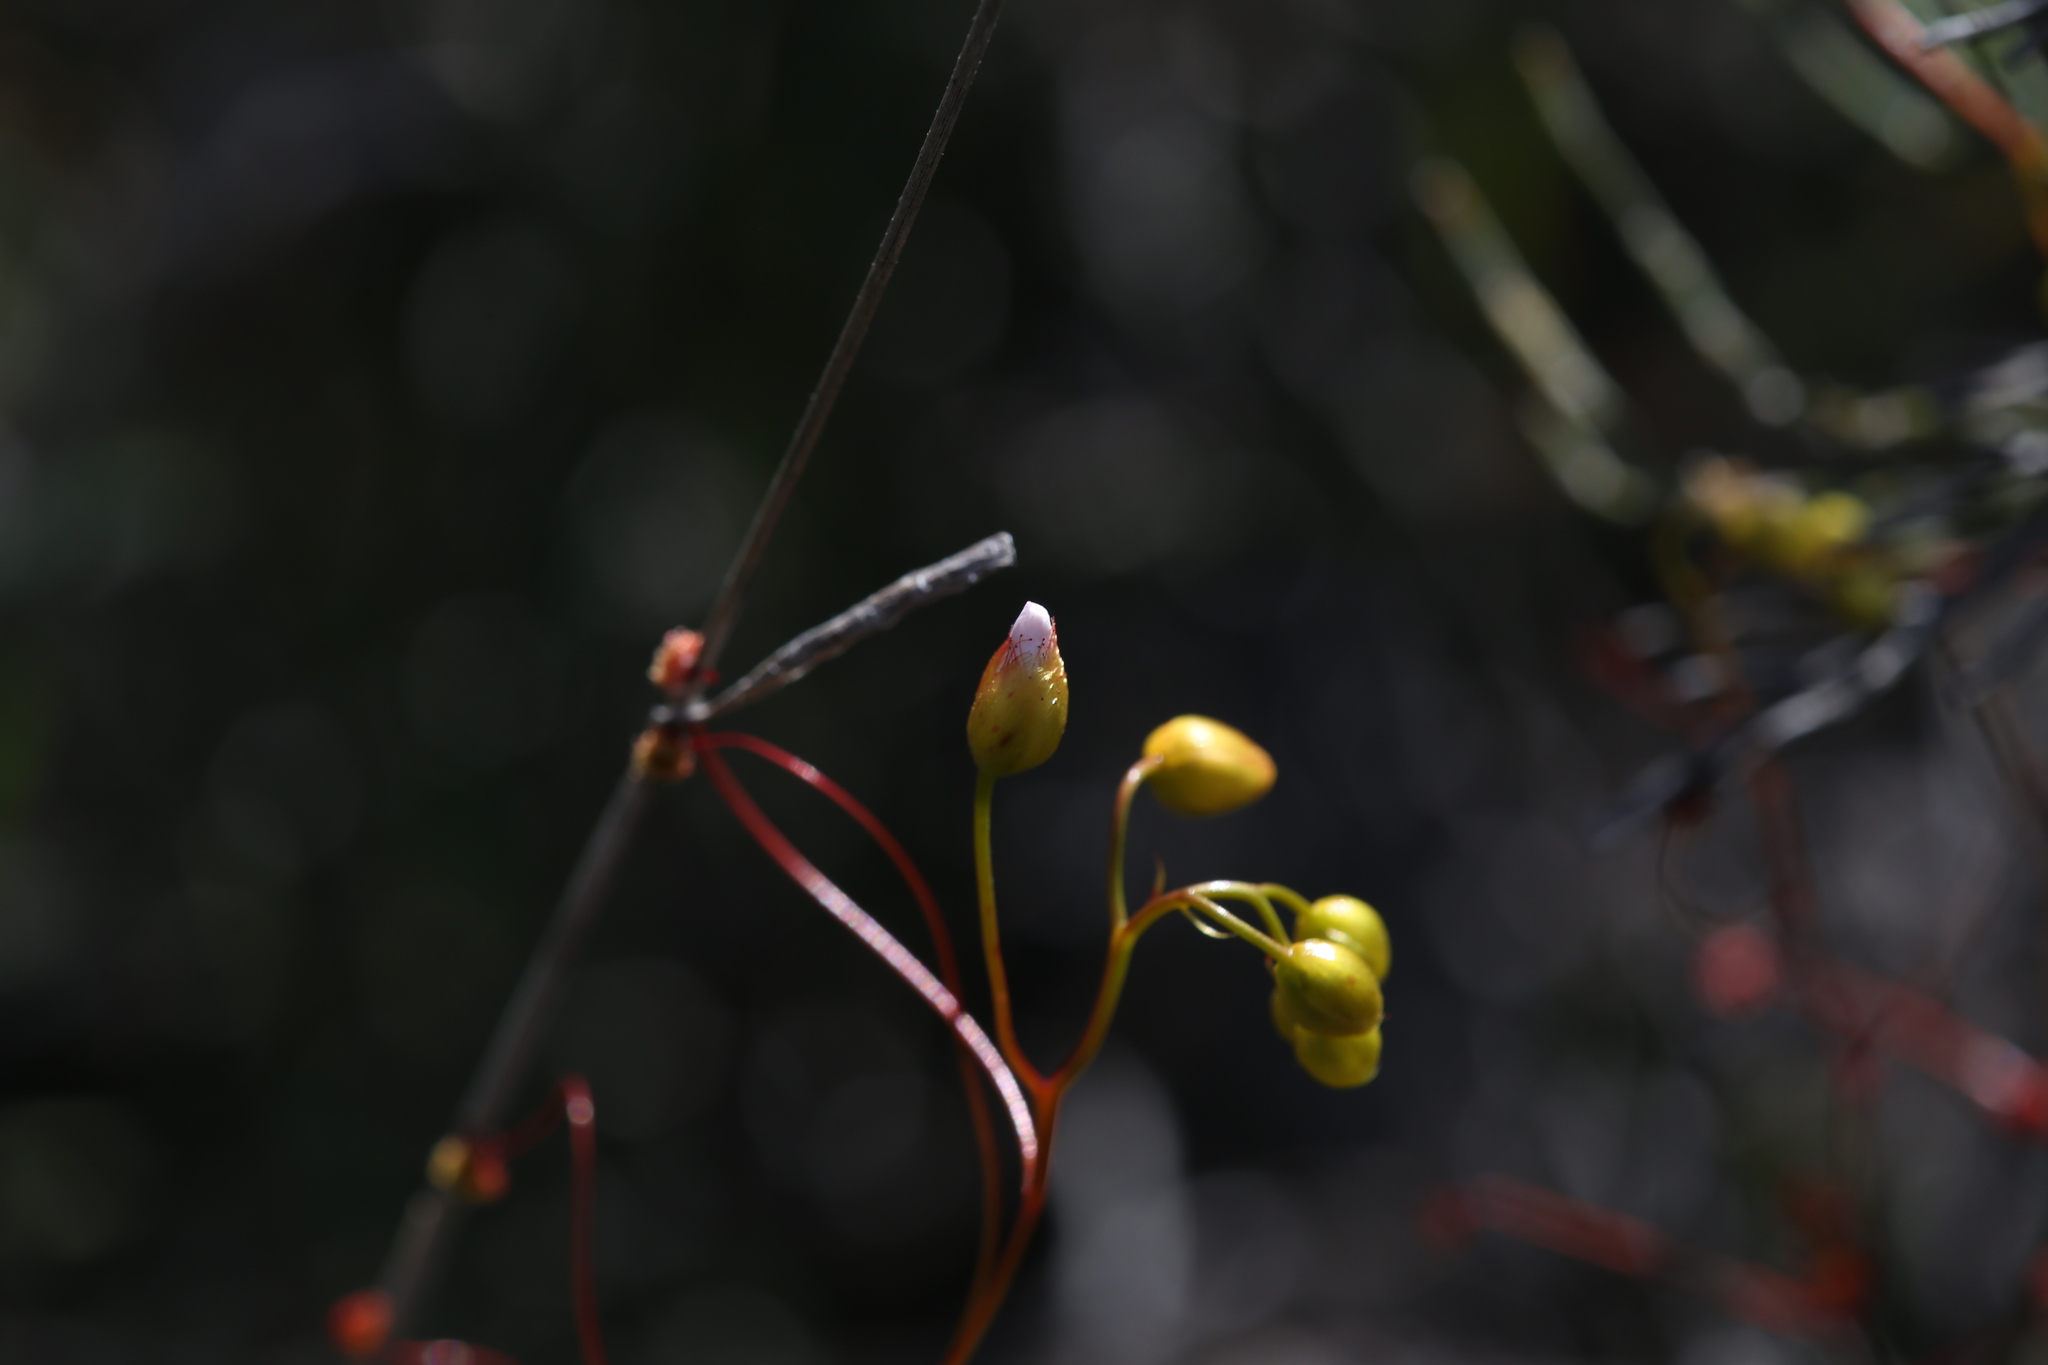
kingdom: Plantae
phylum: Tracheophyta
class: Magnoliopsida
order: Caryophyllales
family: Droseraceae
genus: Drosera
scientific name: Drosera menziesii
